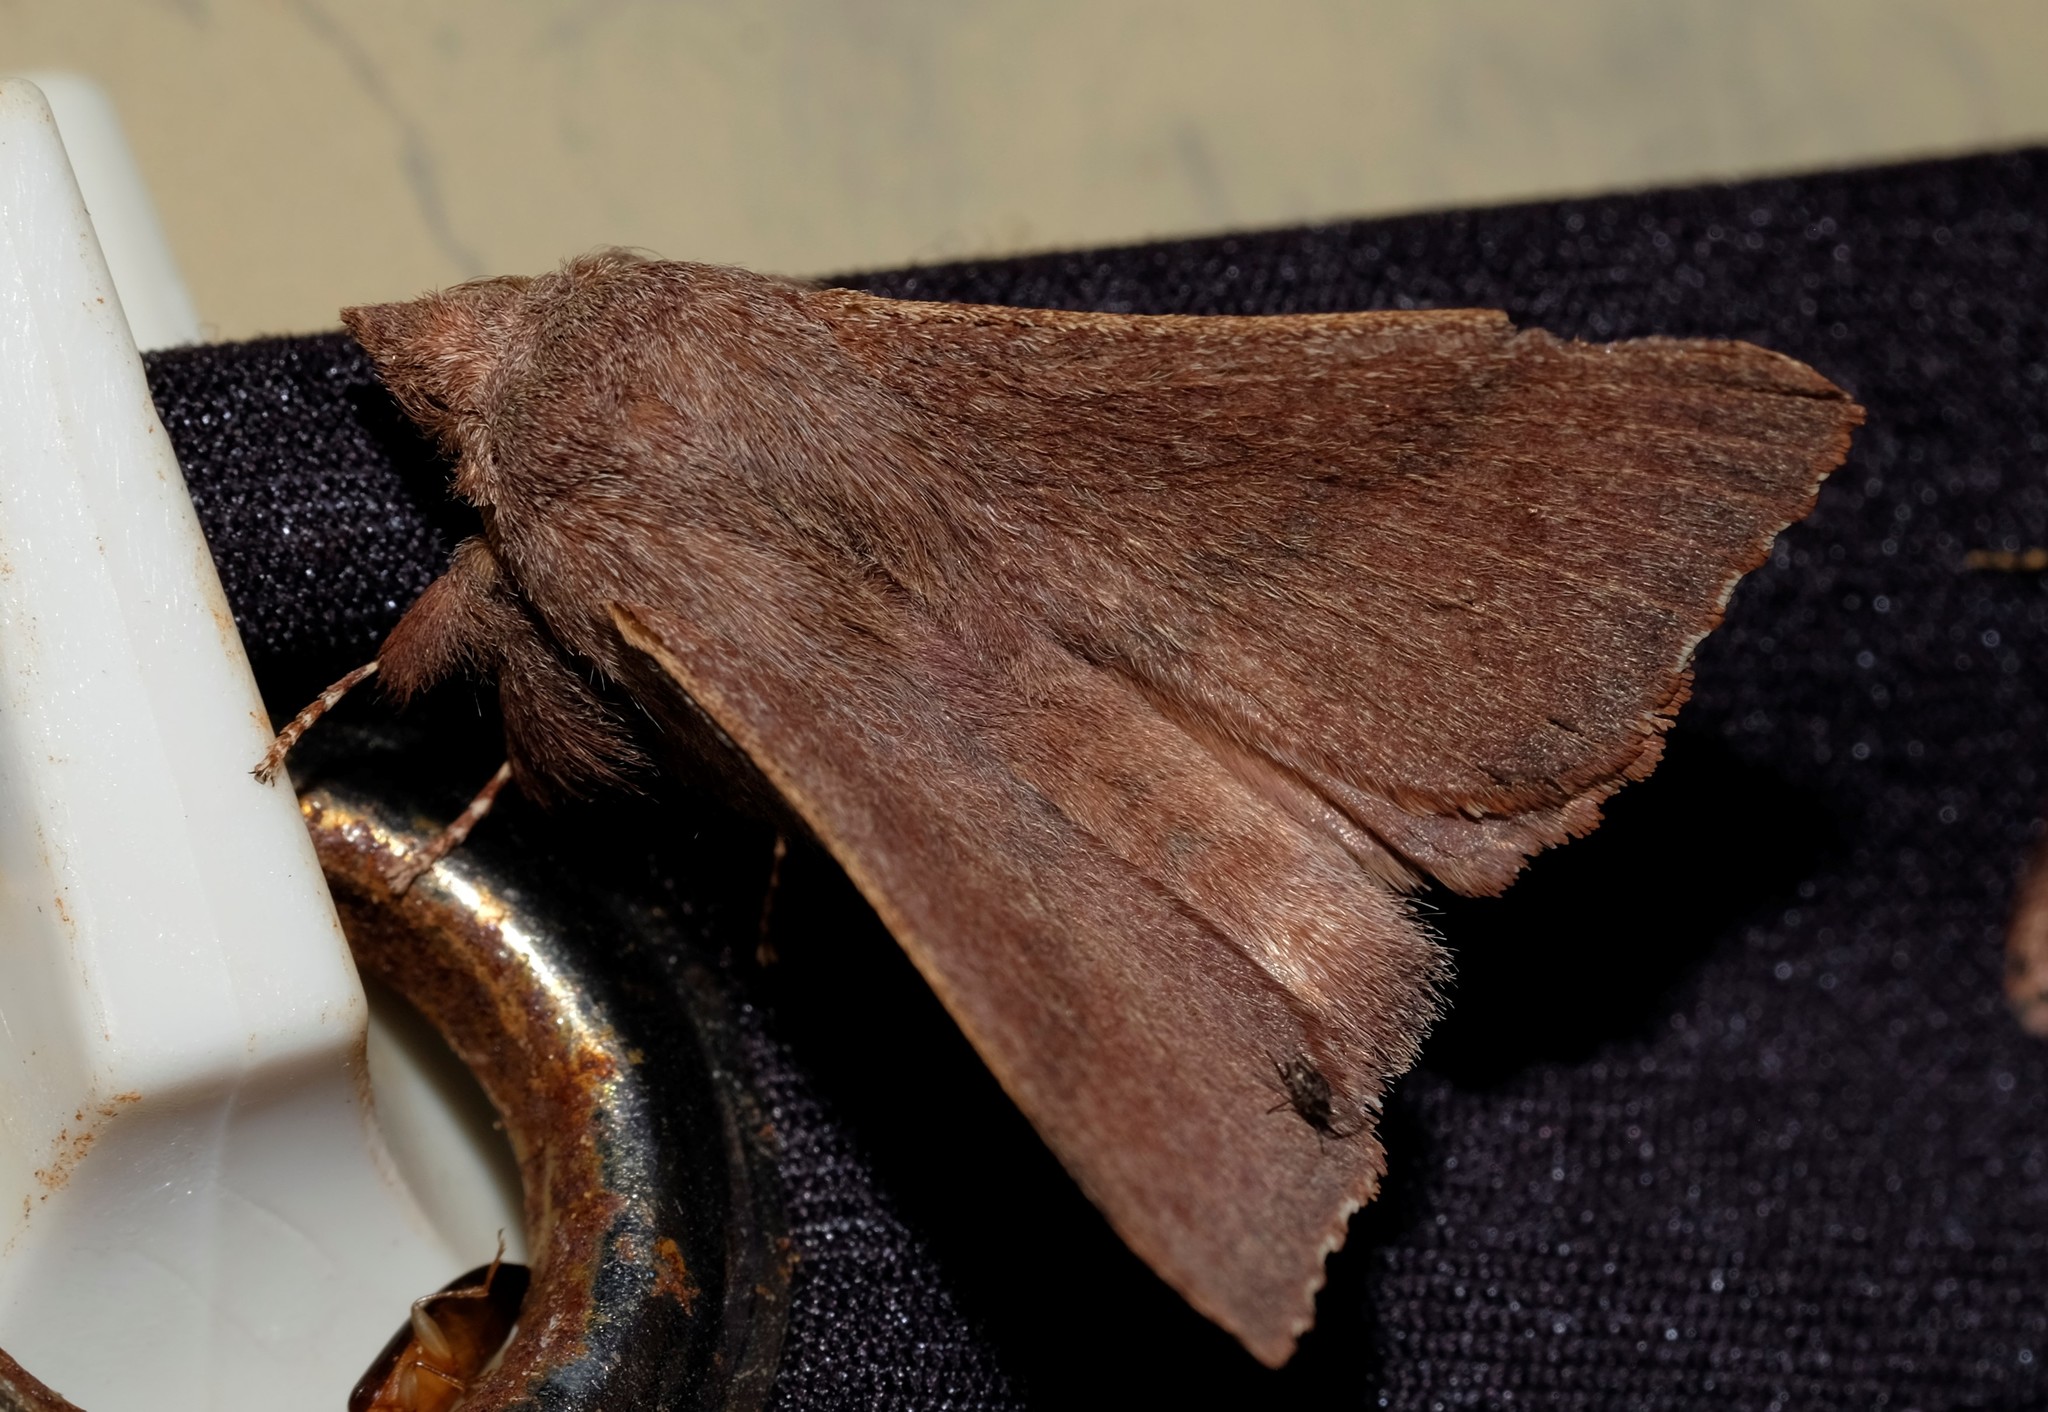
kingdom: Animalia
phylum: Arthropoda
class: Insecta
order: Lepidoptera
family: Lasiocampidae
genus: Pararguda
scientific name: Pararguda rufescens
